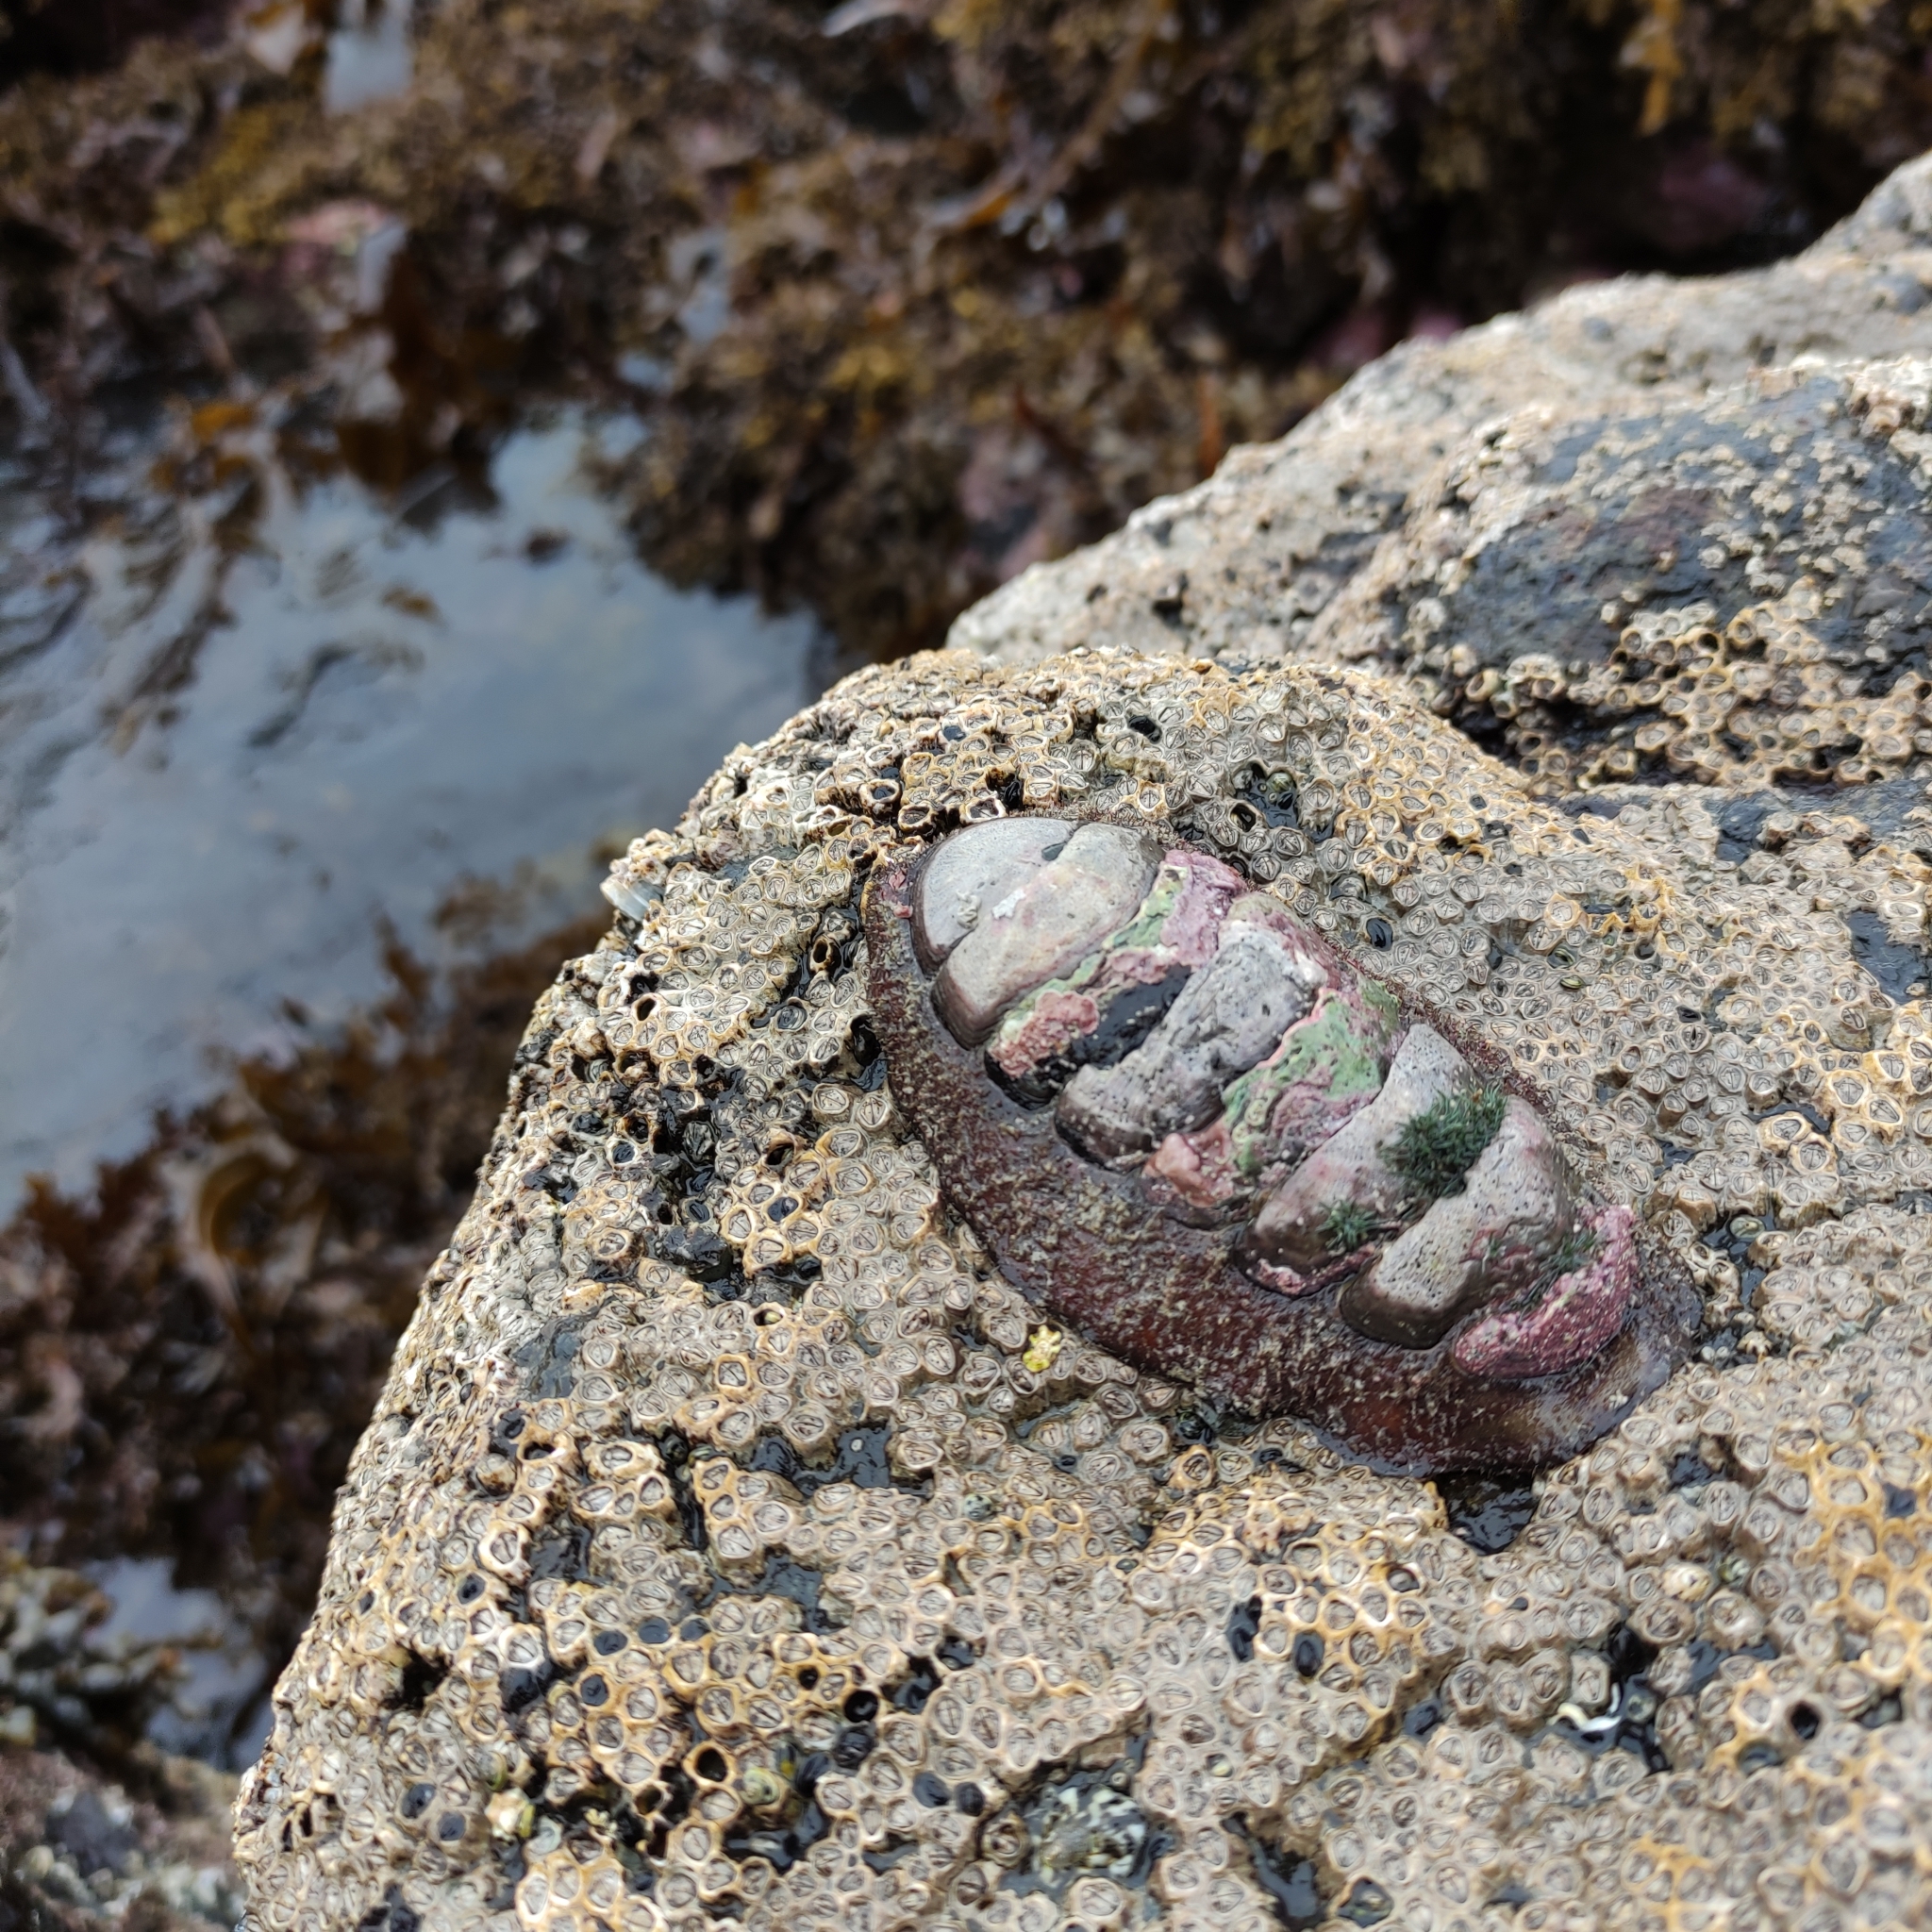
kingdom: Animalia
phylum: Mollusca
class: Polyplacophora
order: Callochitonida
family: Callochitonidae
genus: Eudoxochiton
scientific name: Eudoxochiton nobilis
